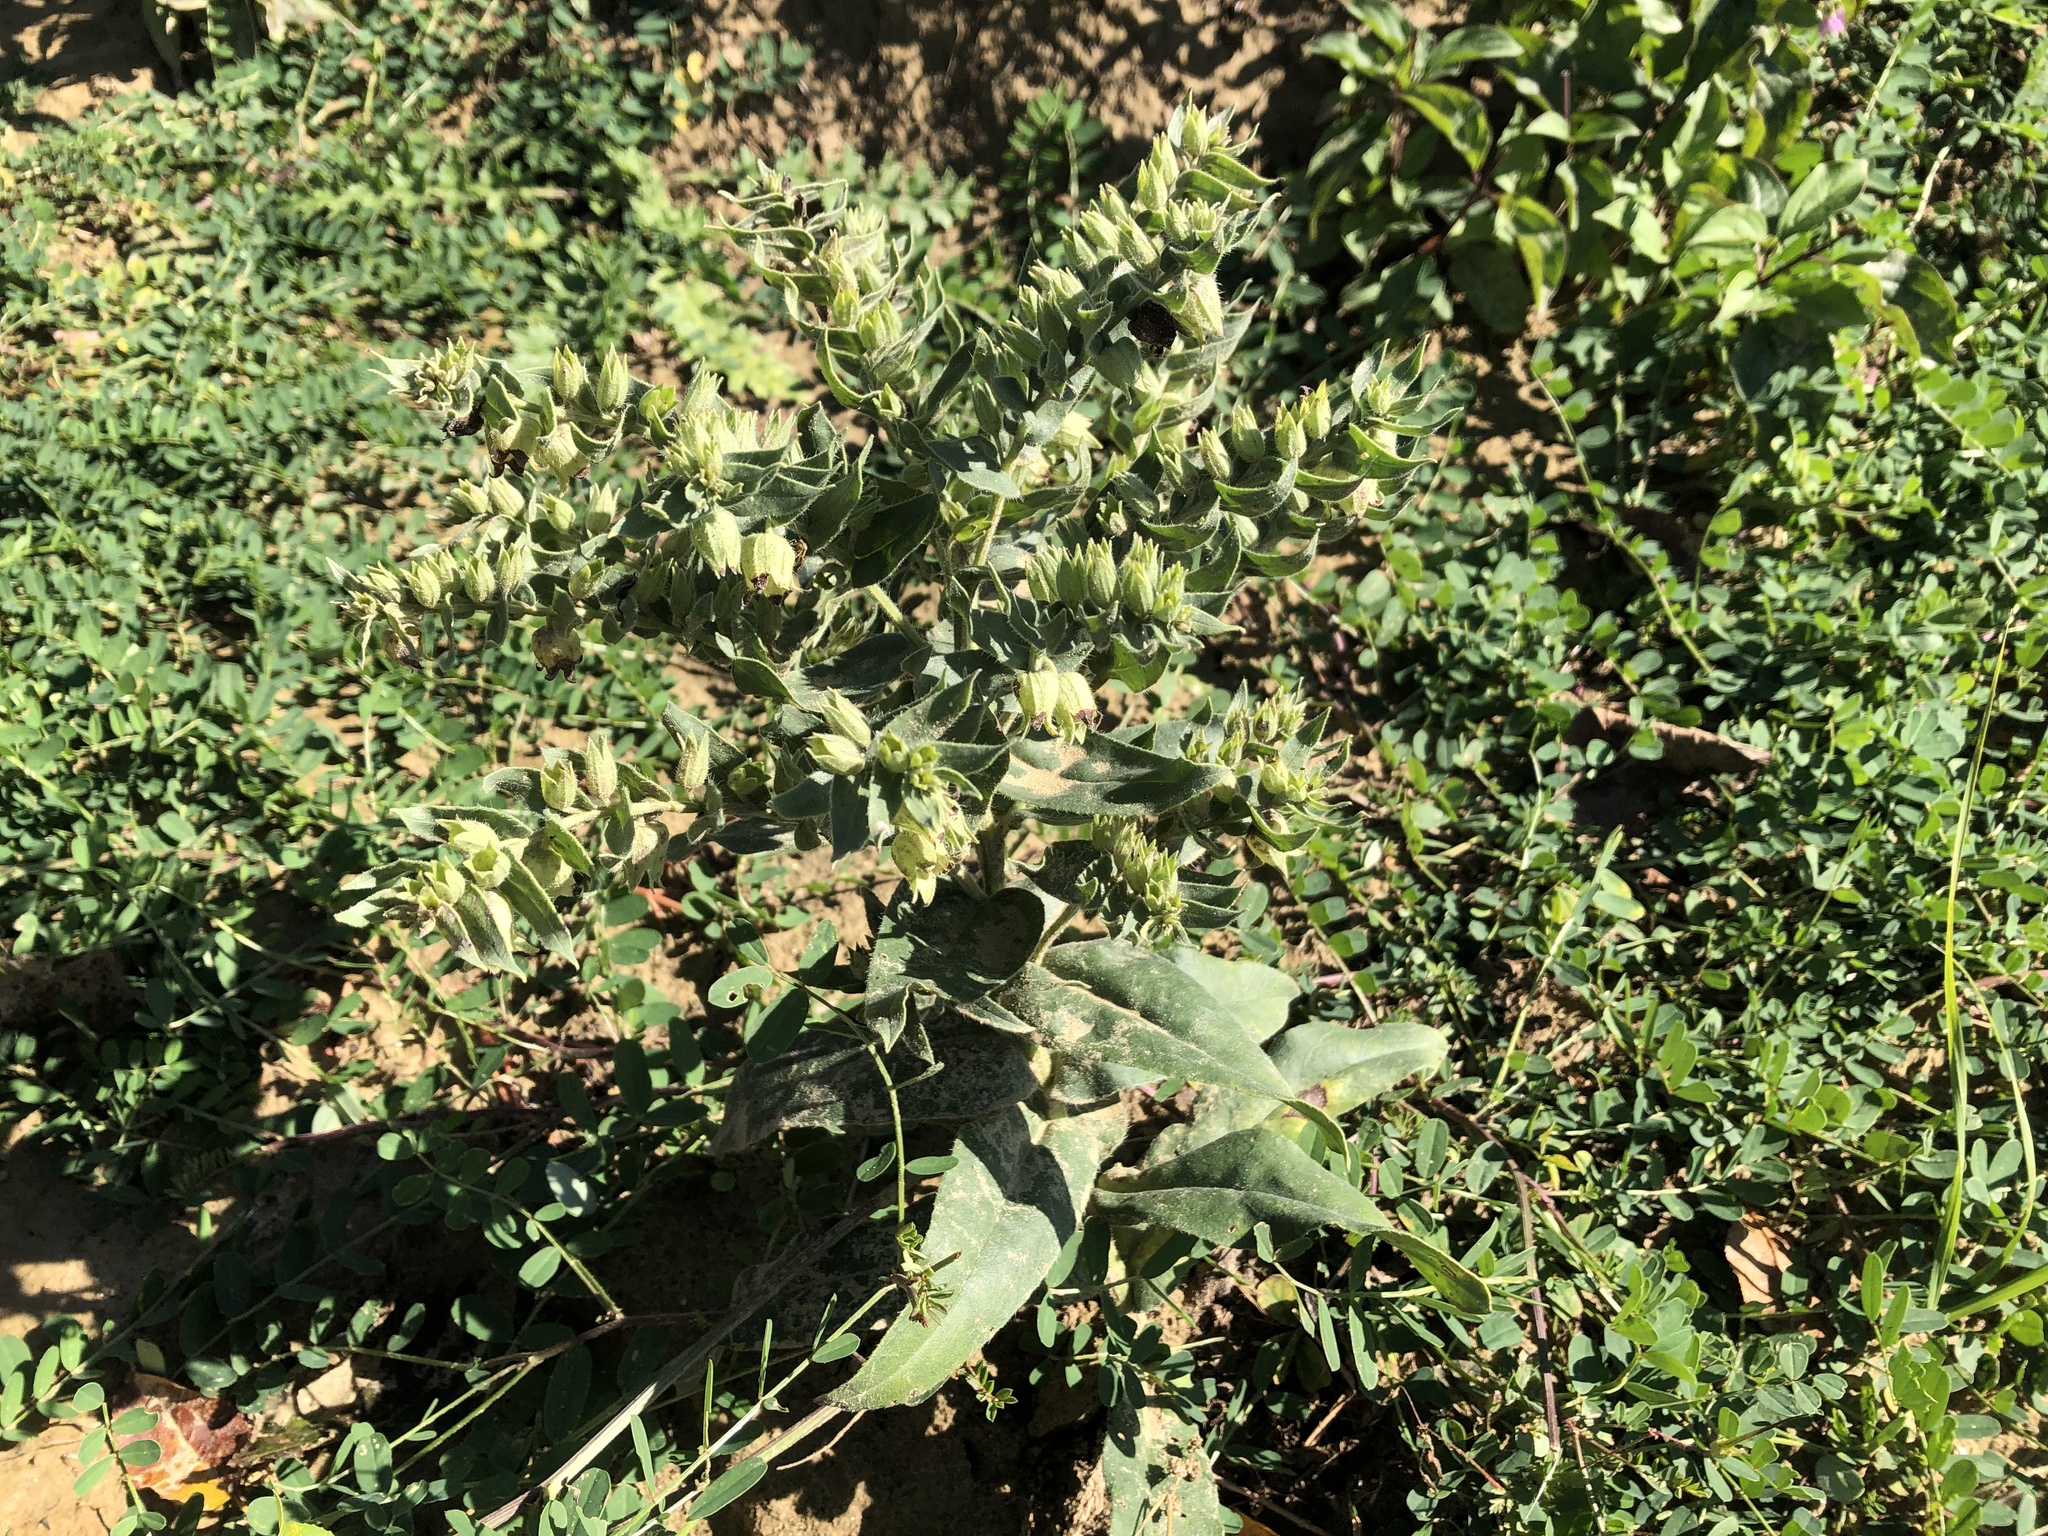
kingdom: Plantae
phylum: Tracheophyta
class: Magnoliopsida
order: Boraginales
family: Boraginaceae
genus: Nonea
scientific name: Nonea pulla
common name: Brown nonea
